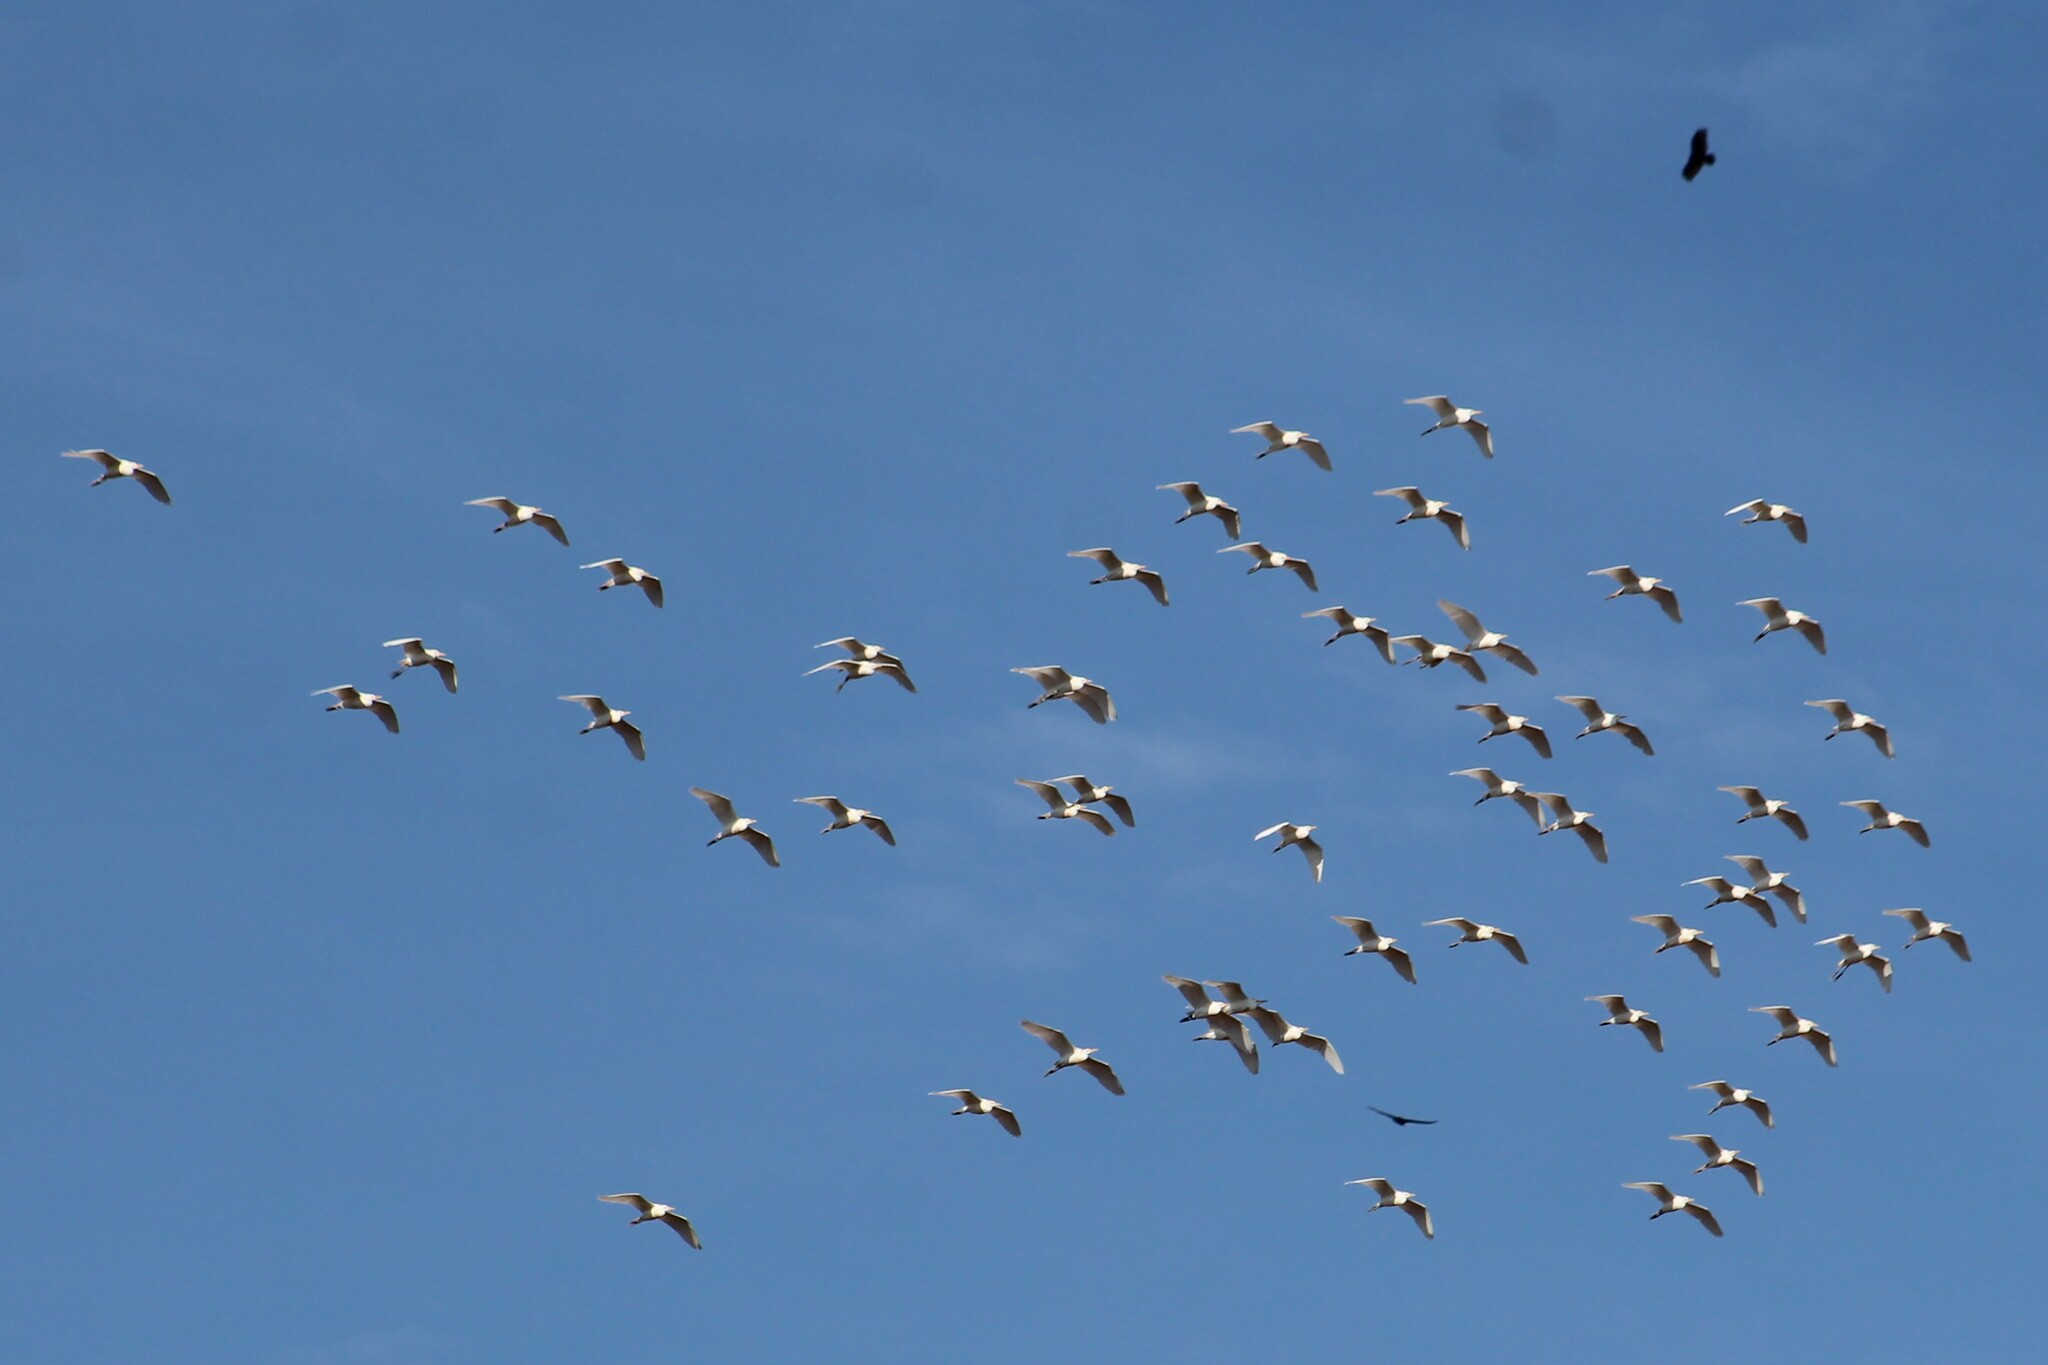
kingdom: Animalia
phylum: Chordata
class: Aves
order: Pelecaniformes
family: Ardeidae
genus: Bubulcus
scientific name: Bubulcus ibis
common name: Cattle egret
